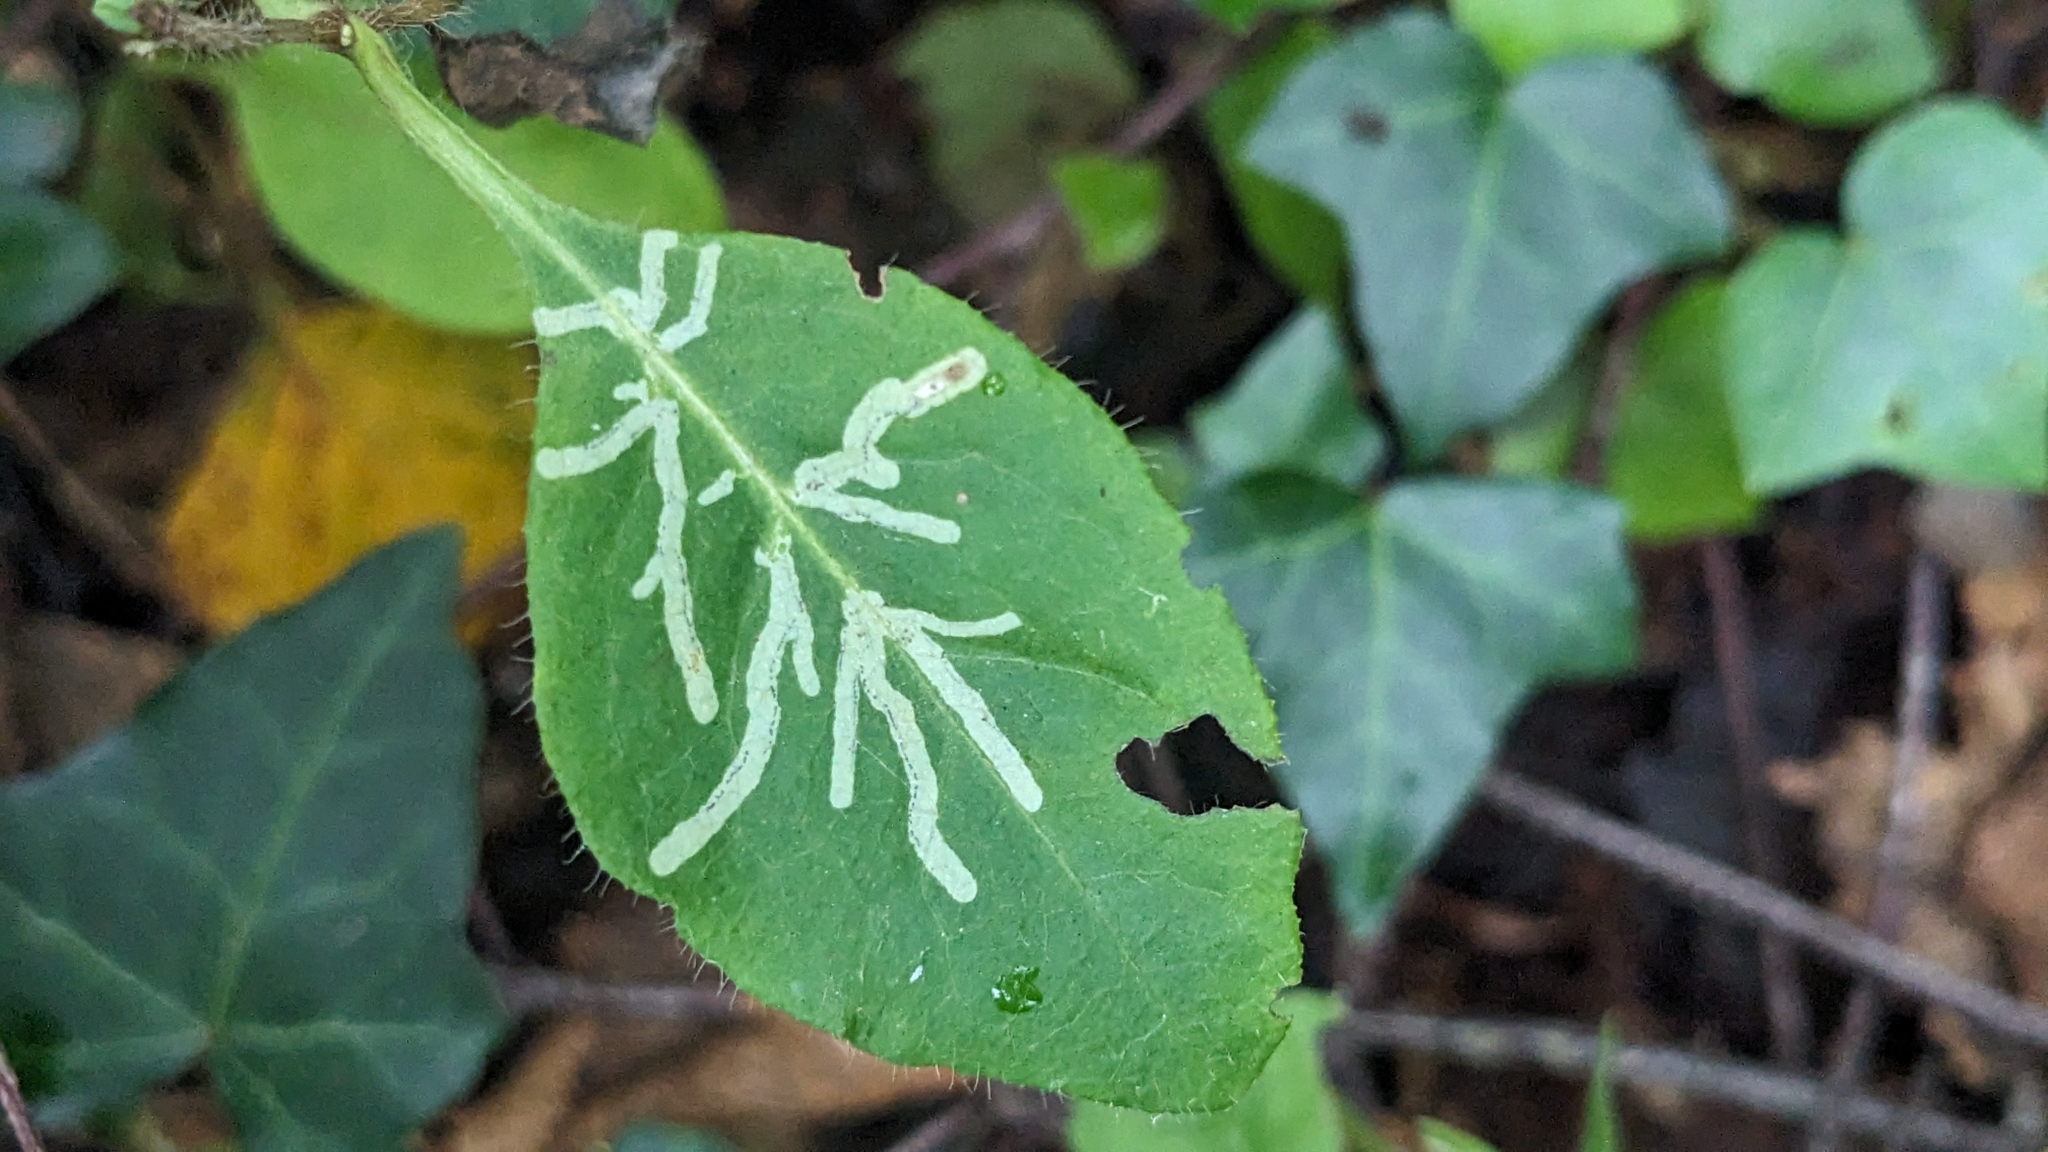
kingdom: Animalia
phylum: Arthropoda
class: Insecta
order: Diptera
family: Agromyzidae
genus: Phytomyza
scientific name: Phytomyza aprilina
